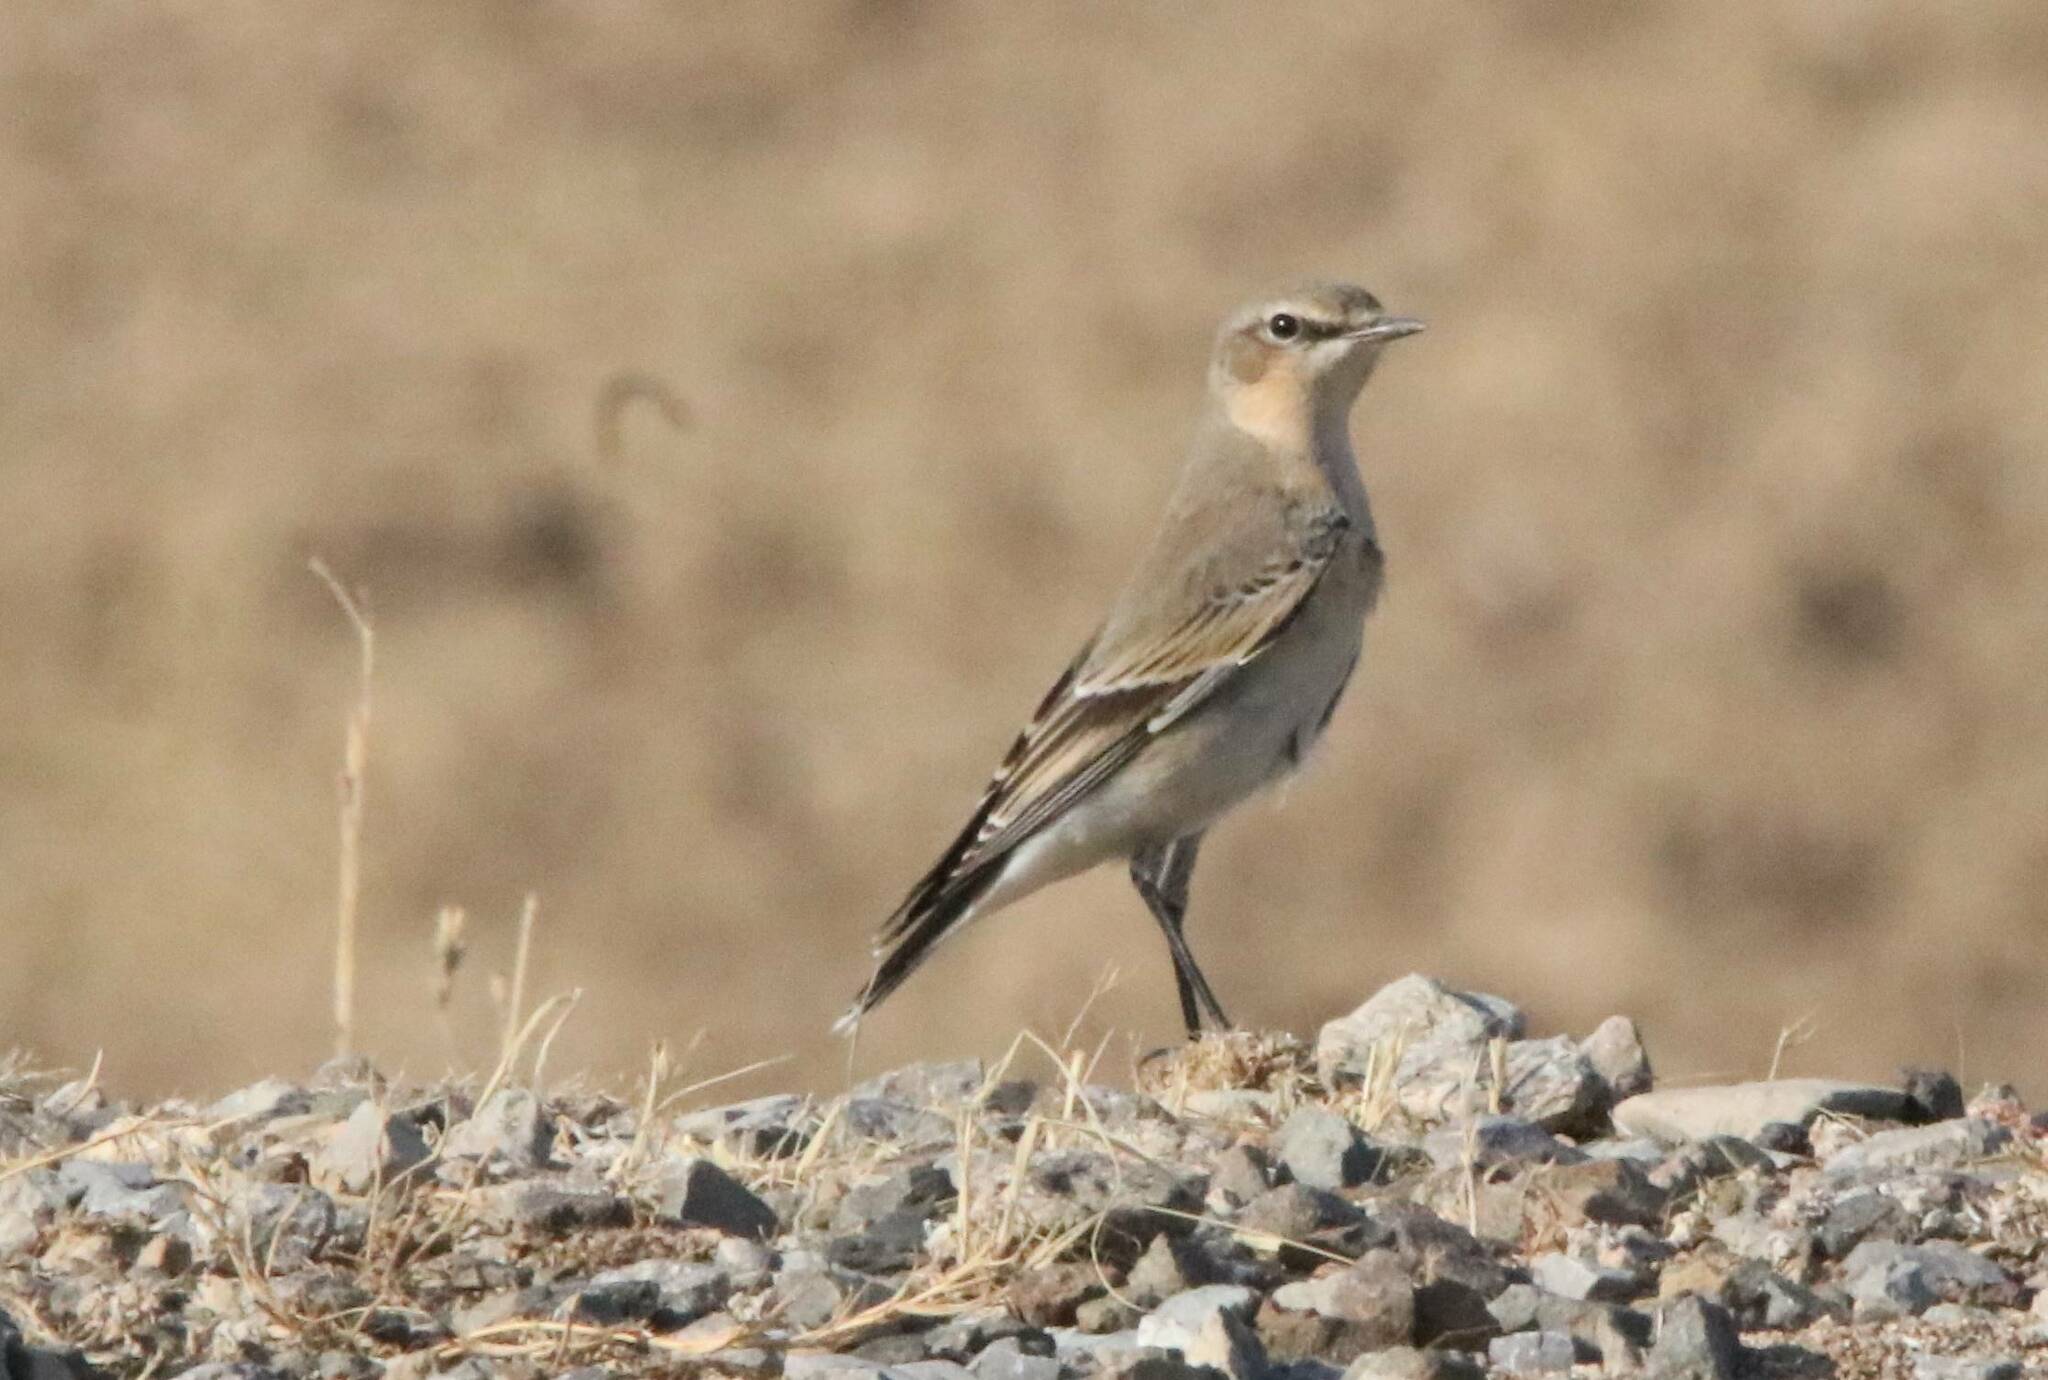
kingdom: Animalia
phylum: Chordata
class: Aves
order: Passeriformes
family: Muscicapidae
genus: Oenanthe
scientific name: Oenanthe oenanthe
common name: Northern wheatear
